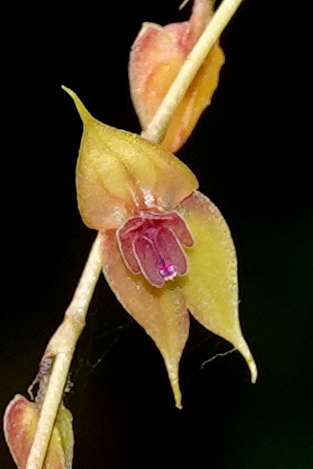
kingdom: Plantae
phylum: Tracheophyta
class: Liliopsida
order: Asparagales
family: Orchidaceae
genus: Lepanthes
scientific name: Lepanthes jardinensis
